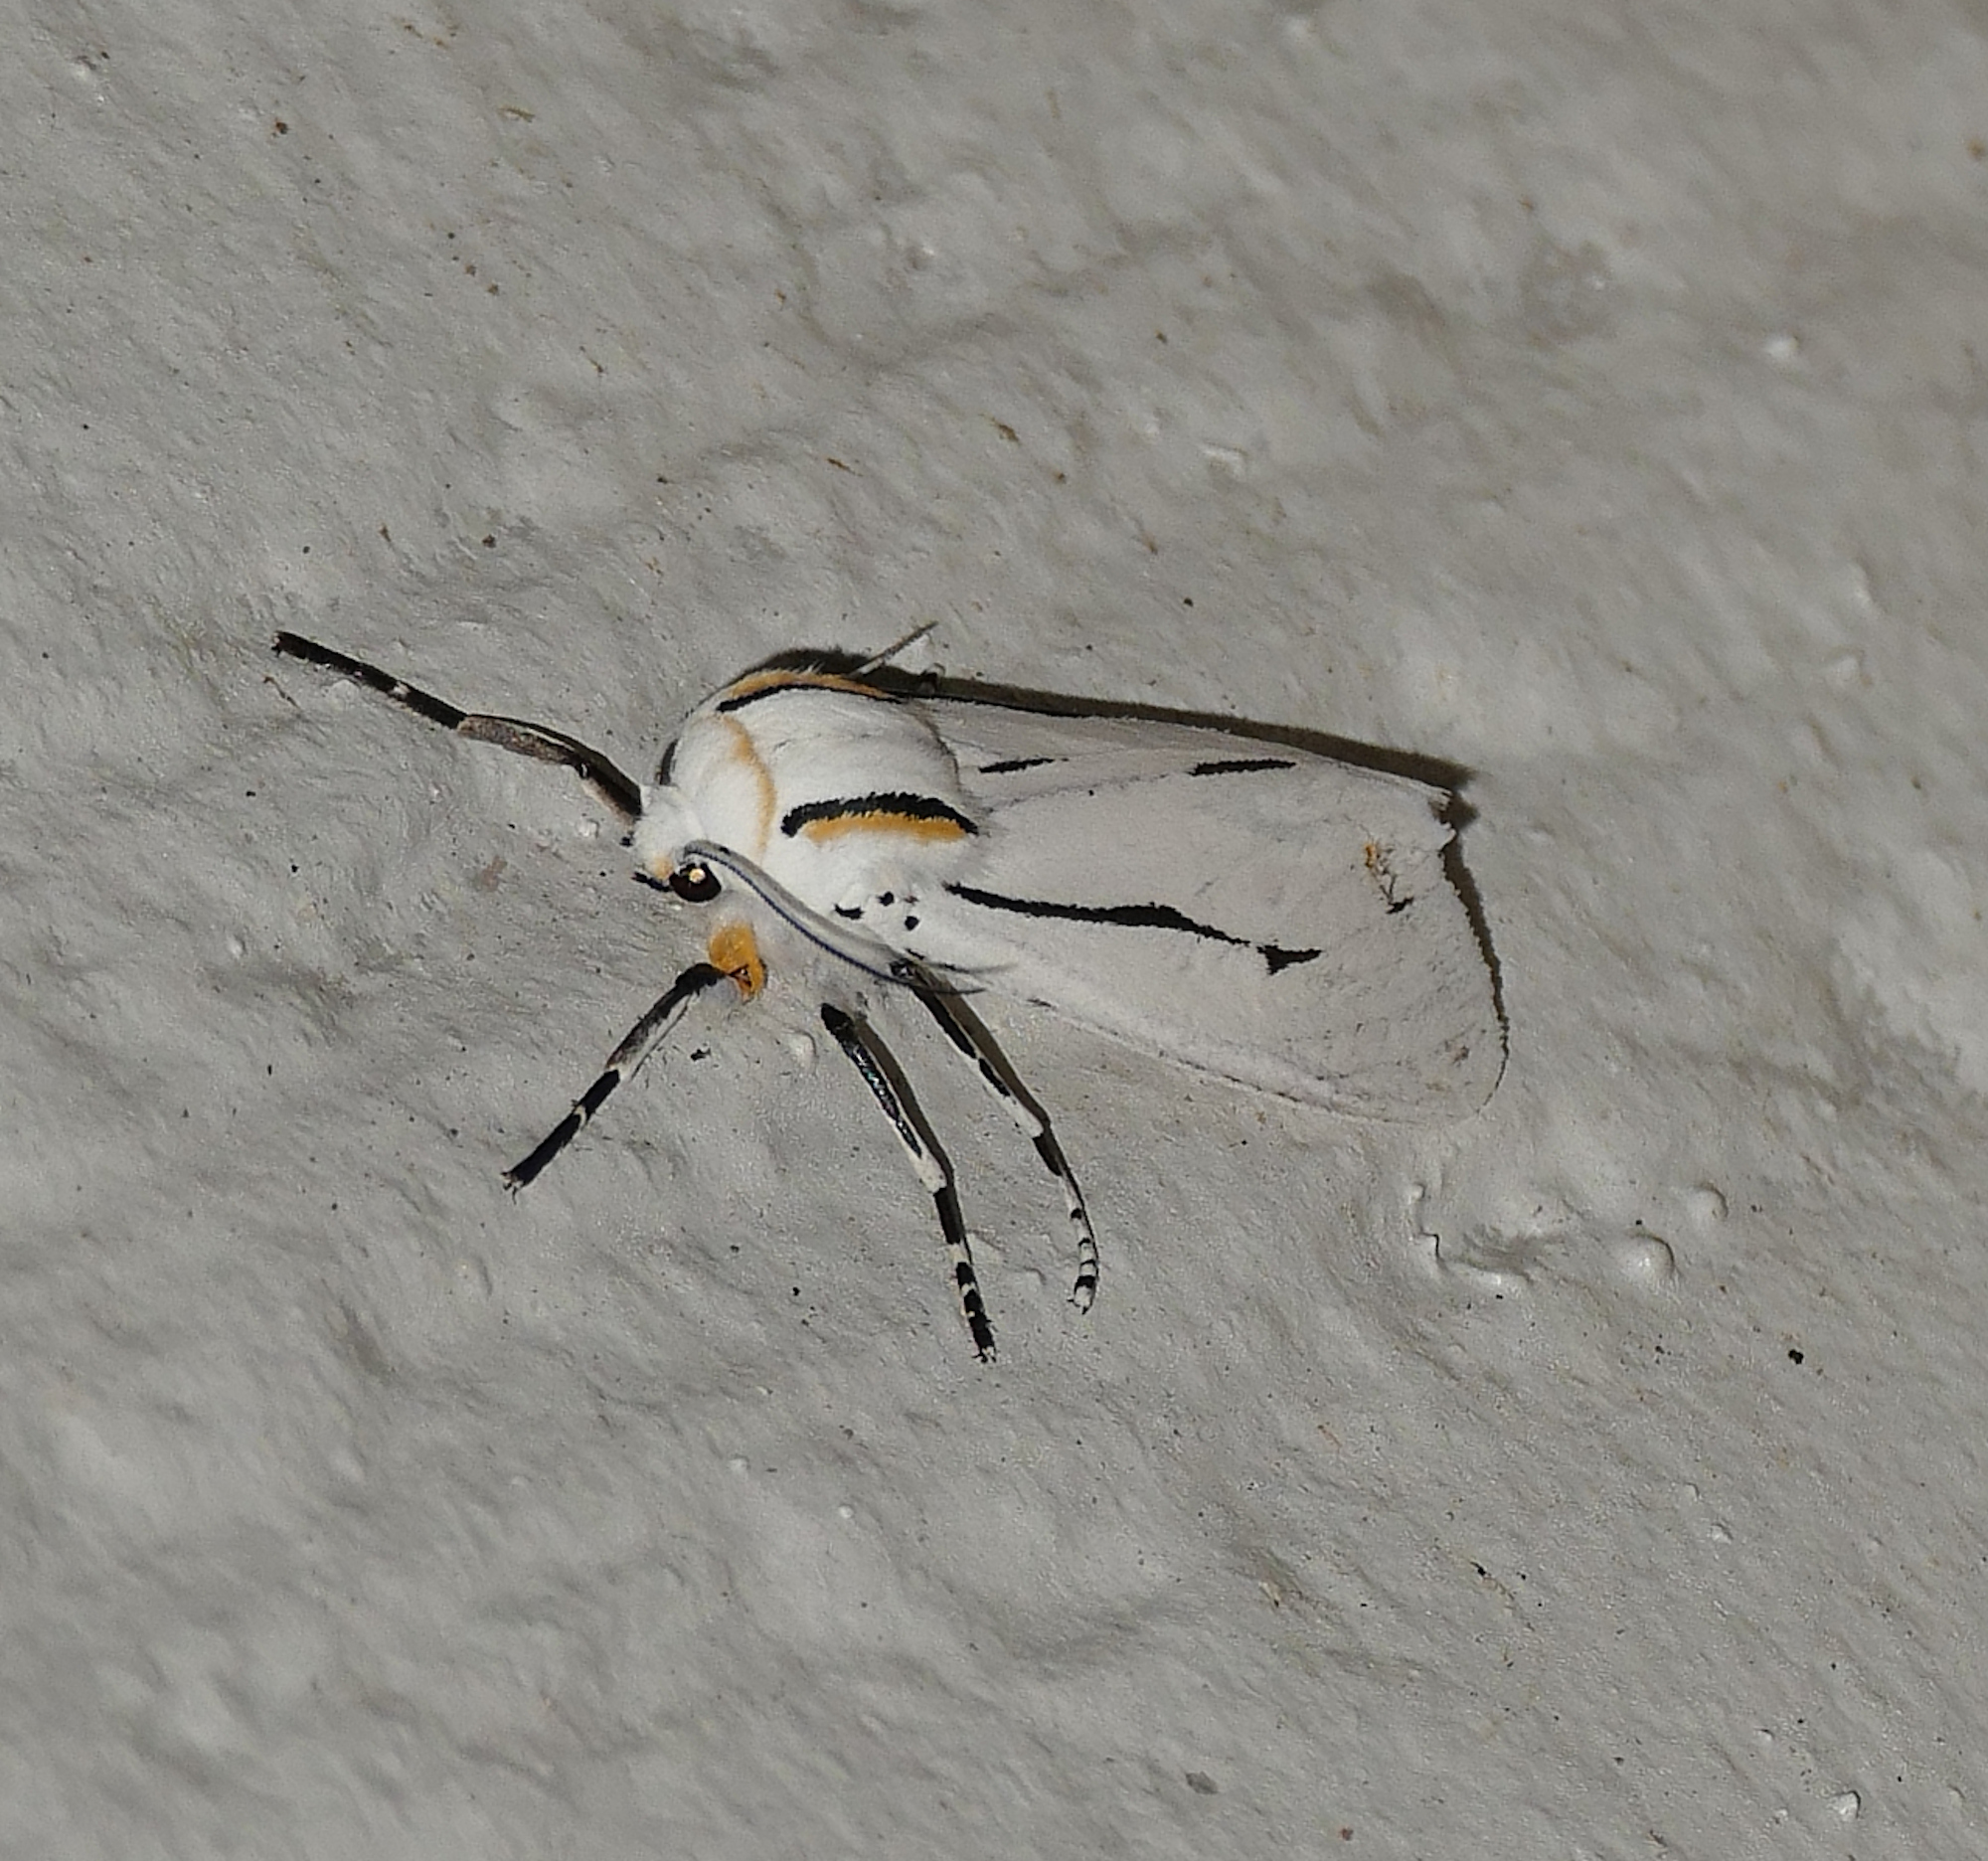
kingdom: Animalia
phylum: Arthropoda
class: Insecta
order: Lepidoptera
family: Erebidae
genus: Ectypia
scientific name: Ectypia clio
